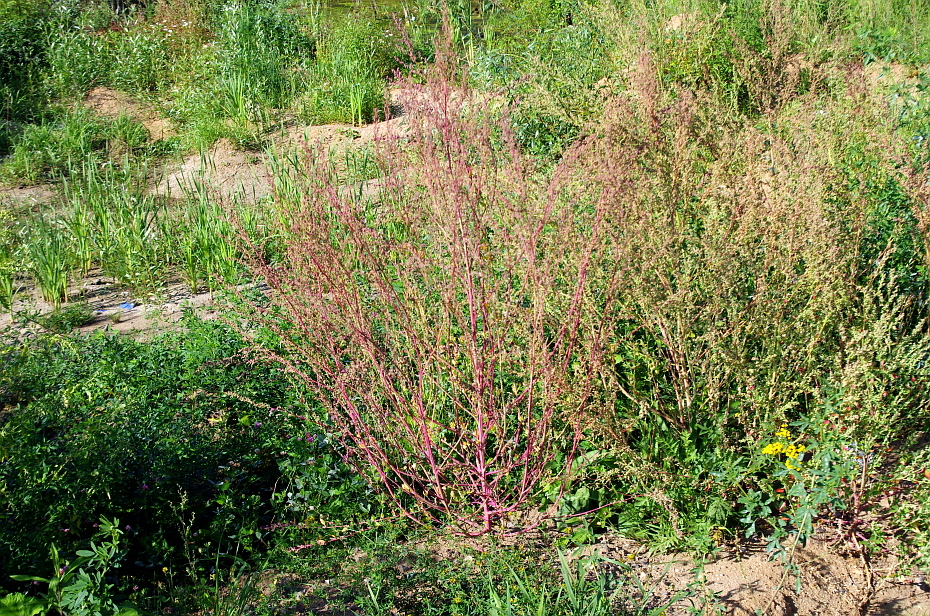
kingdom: Plantae
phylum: Tracheophyta
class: Magnoliopsida
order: Caryophyllales
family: Amaranthaceae
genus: Chenopodium
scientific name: Chenopodium album
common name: Fat-hen
